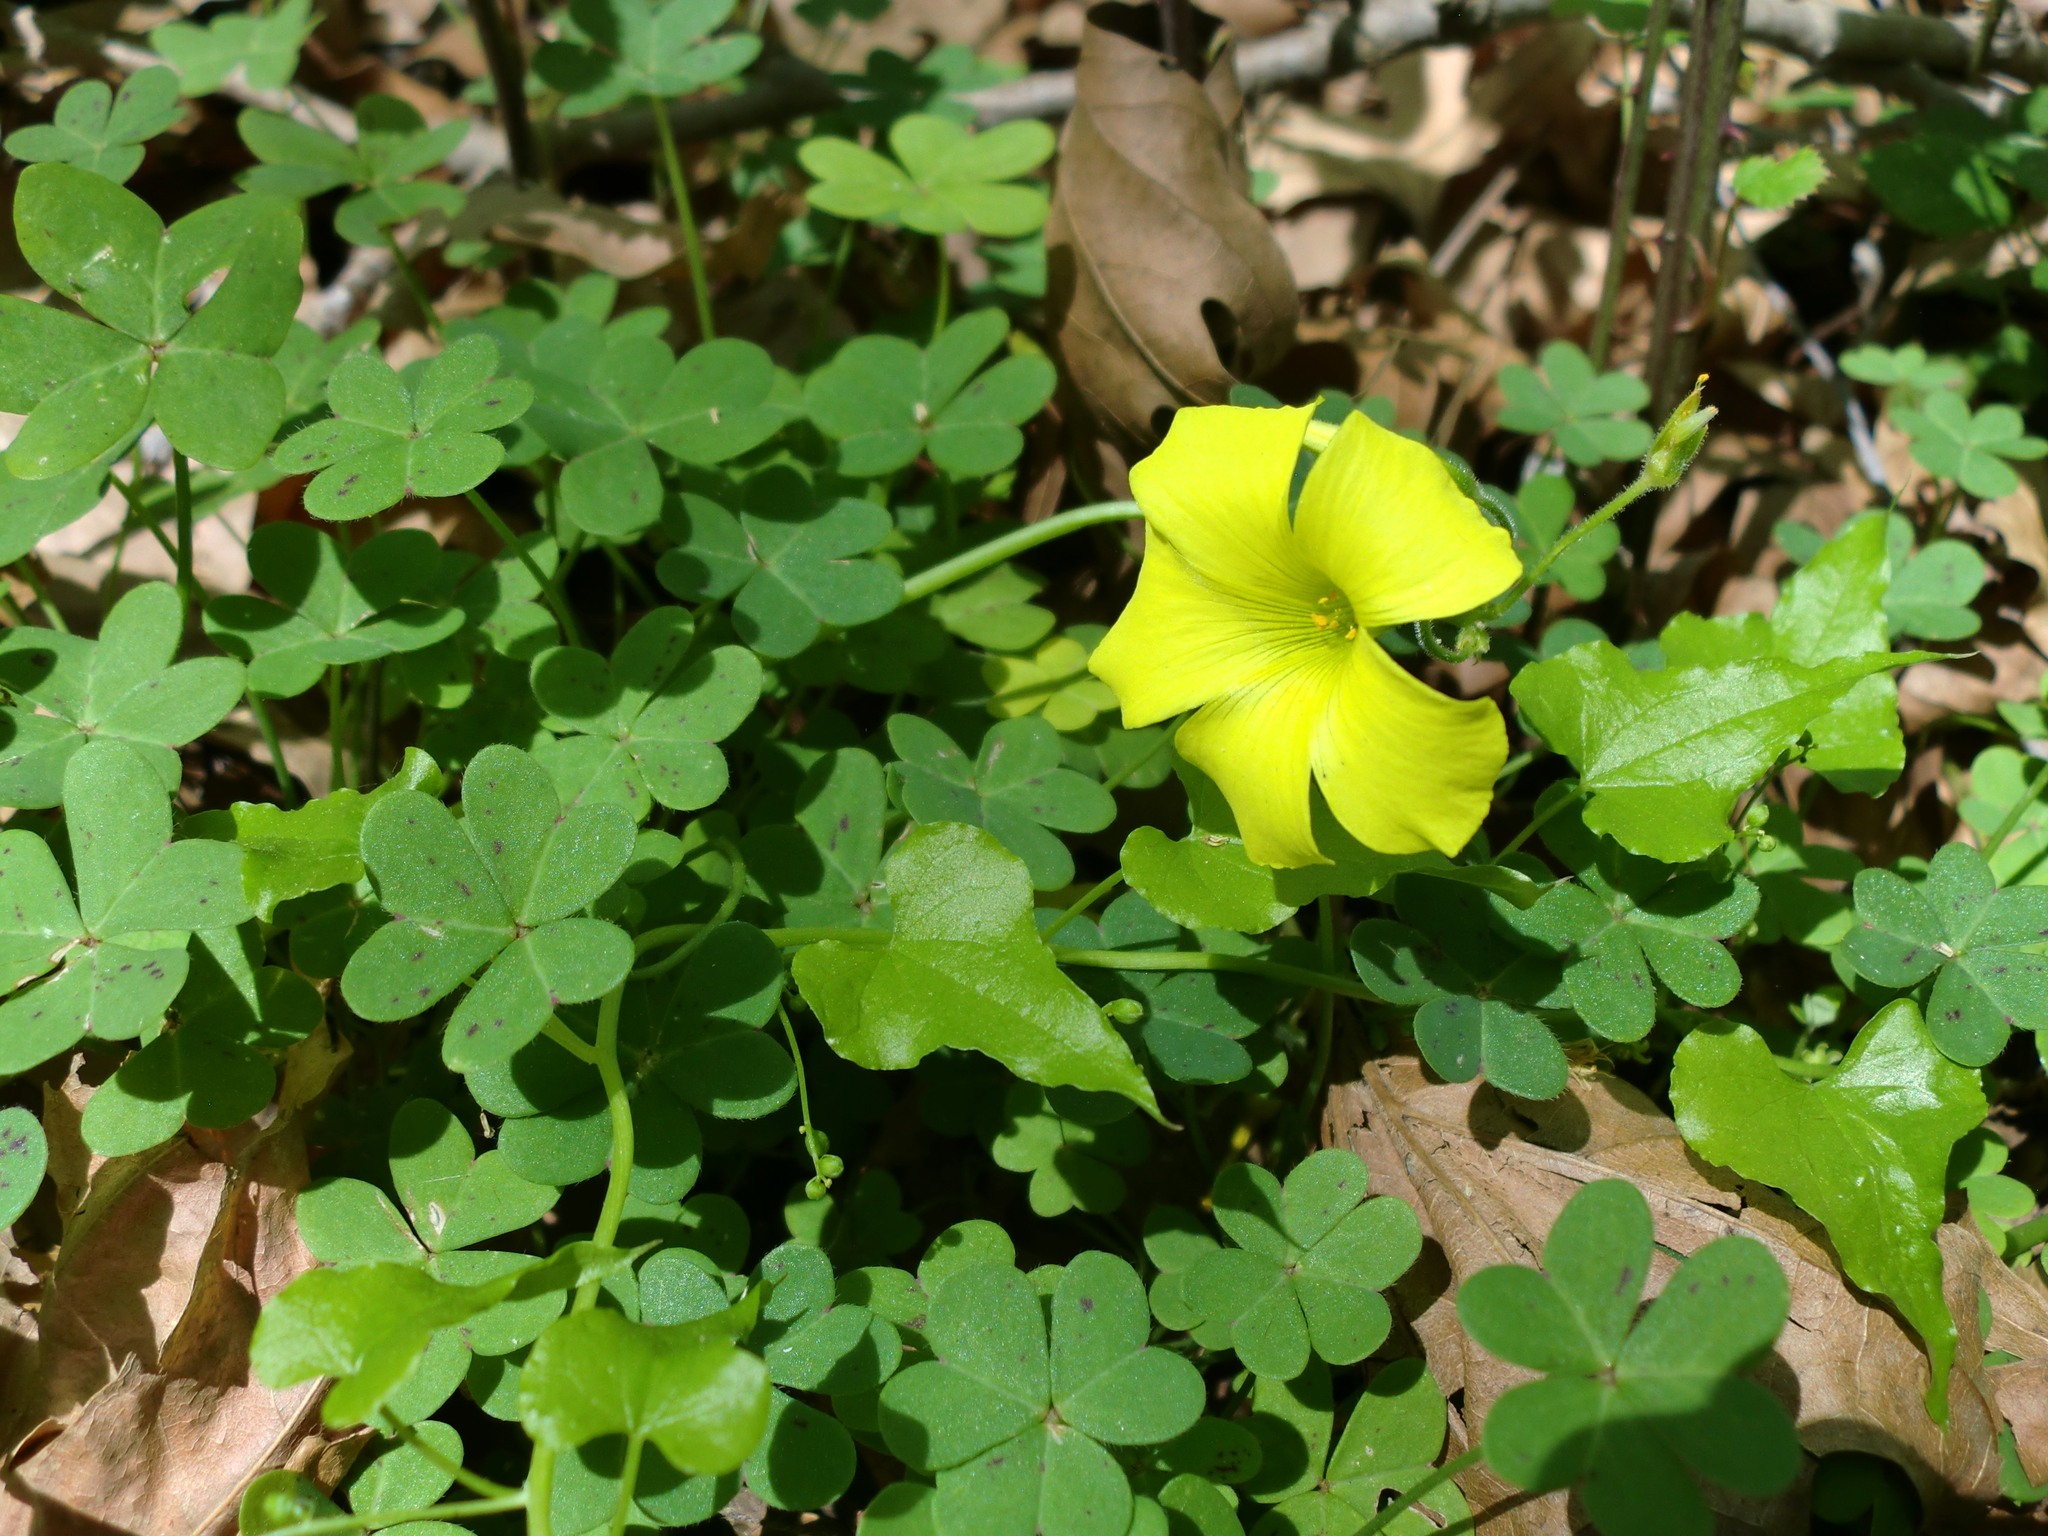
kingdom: Plantae
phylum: Tracheophyta
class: Magnoliopsida
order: Oxalidales
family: Oxalidaceae
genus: Oxalis
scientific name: Oxalis pes-caprae
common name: Bermuda-buttercup
